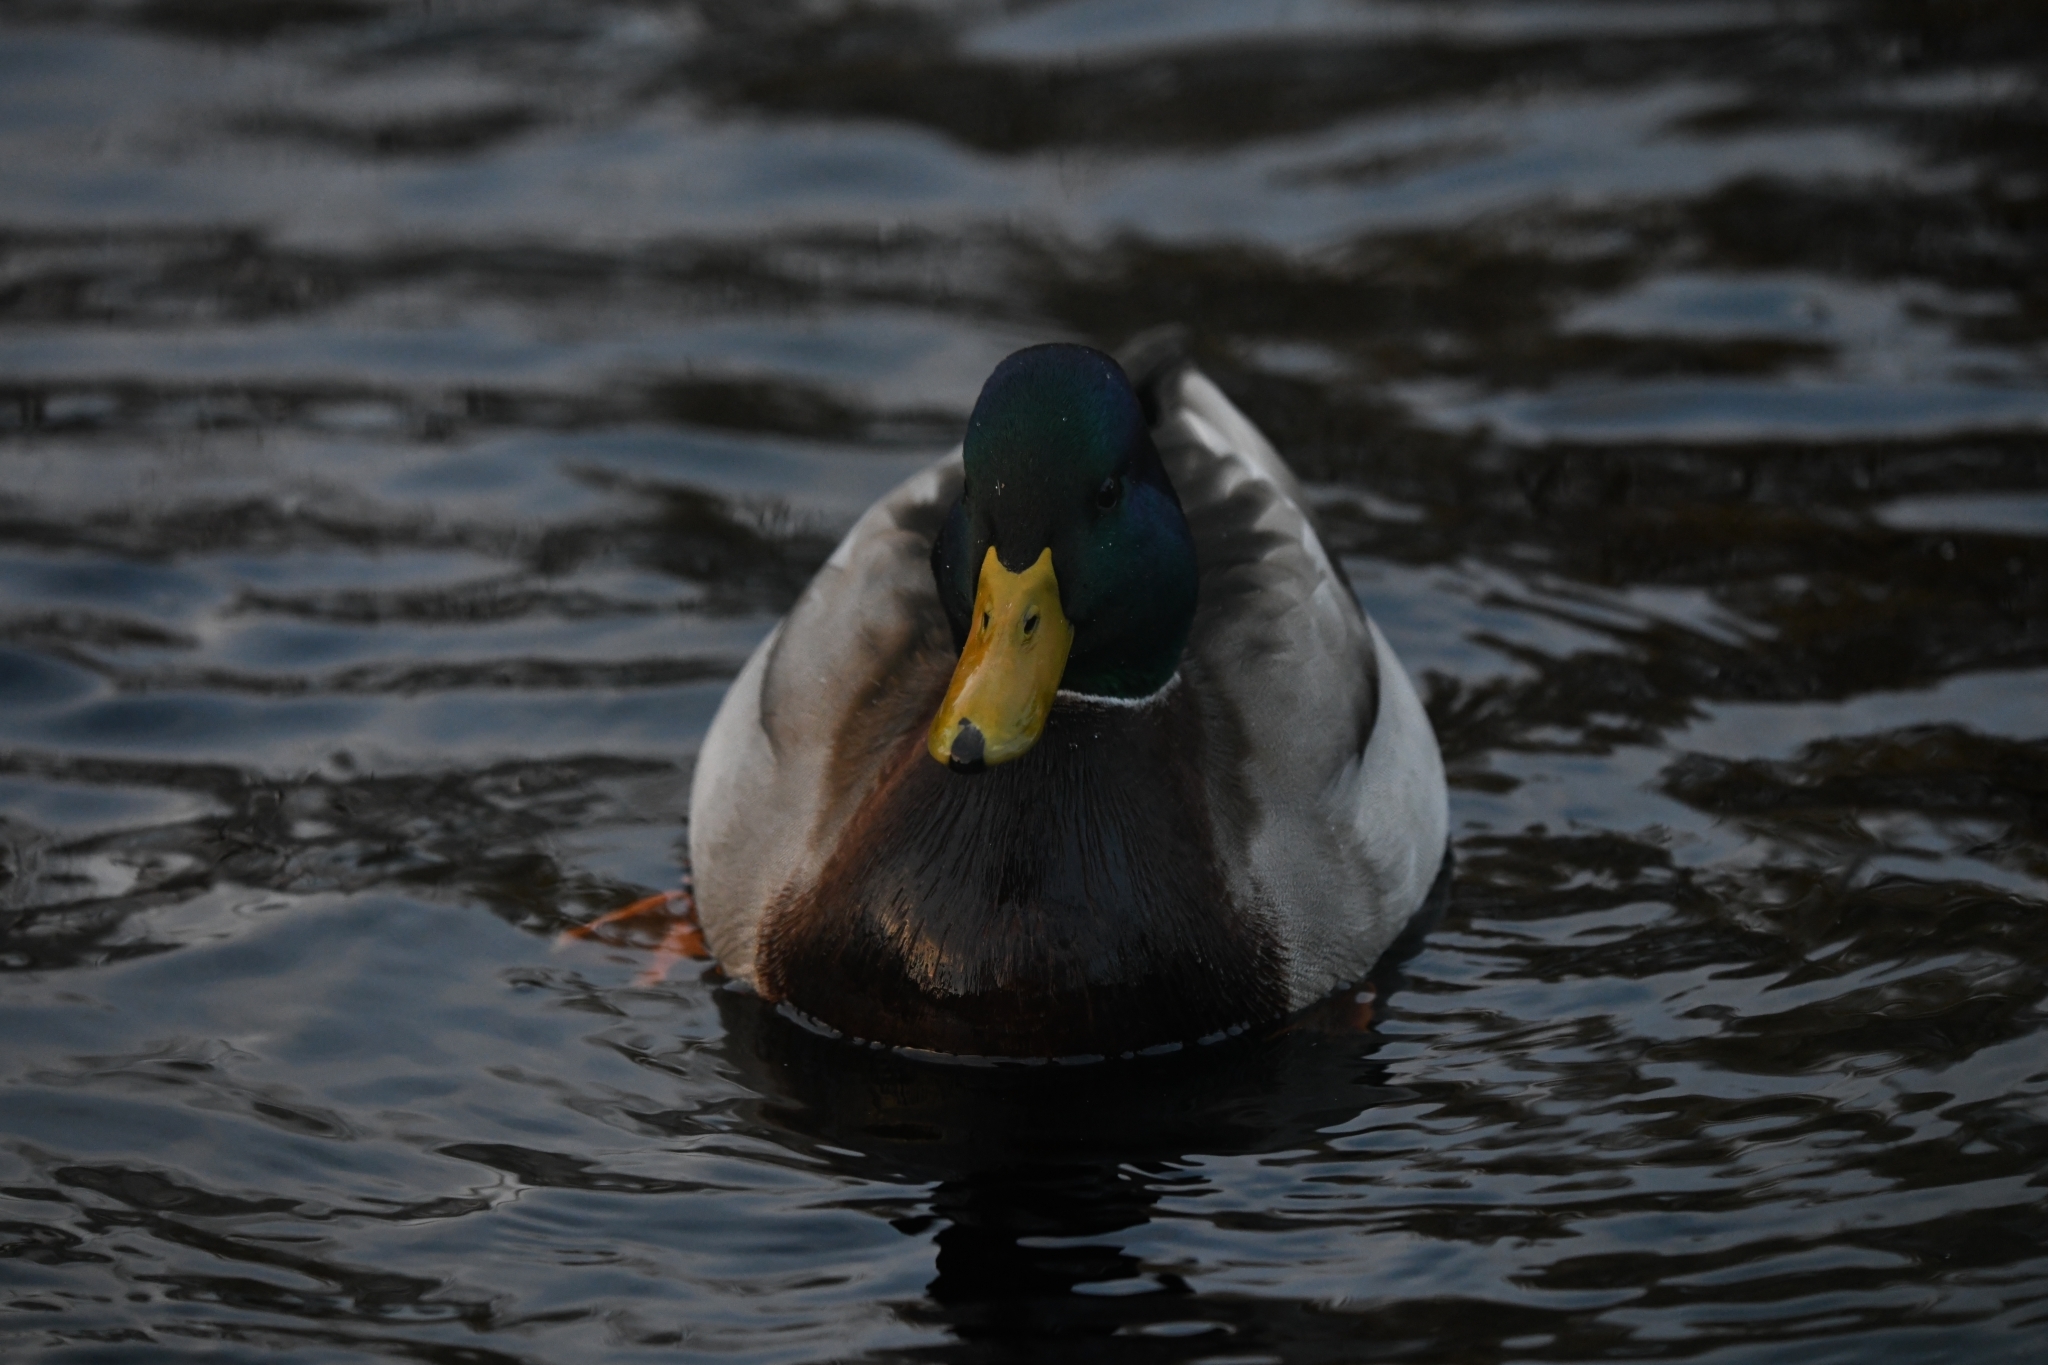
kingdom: Animalia
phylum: Chordata
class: Aves
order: Anseriformes
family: Anatidae
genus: Anas
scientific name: Anas platyrhynchos
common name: Mallard
